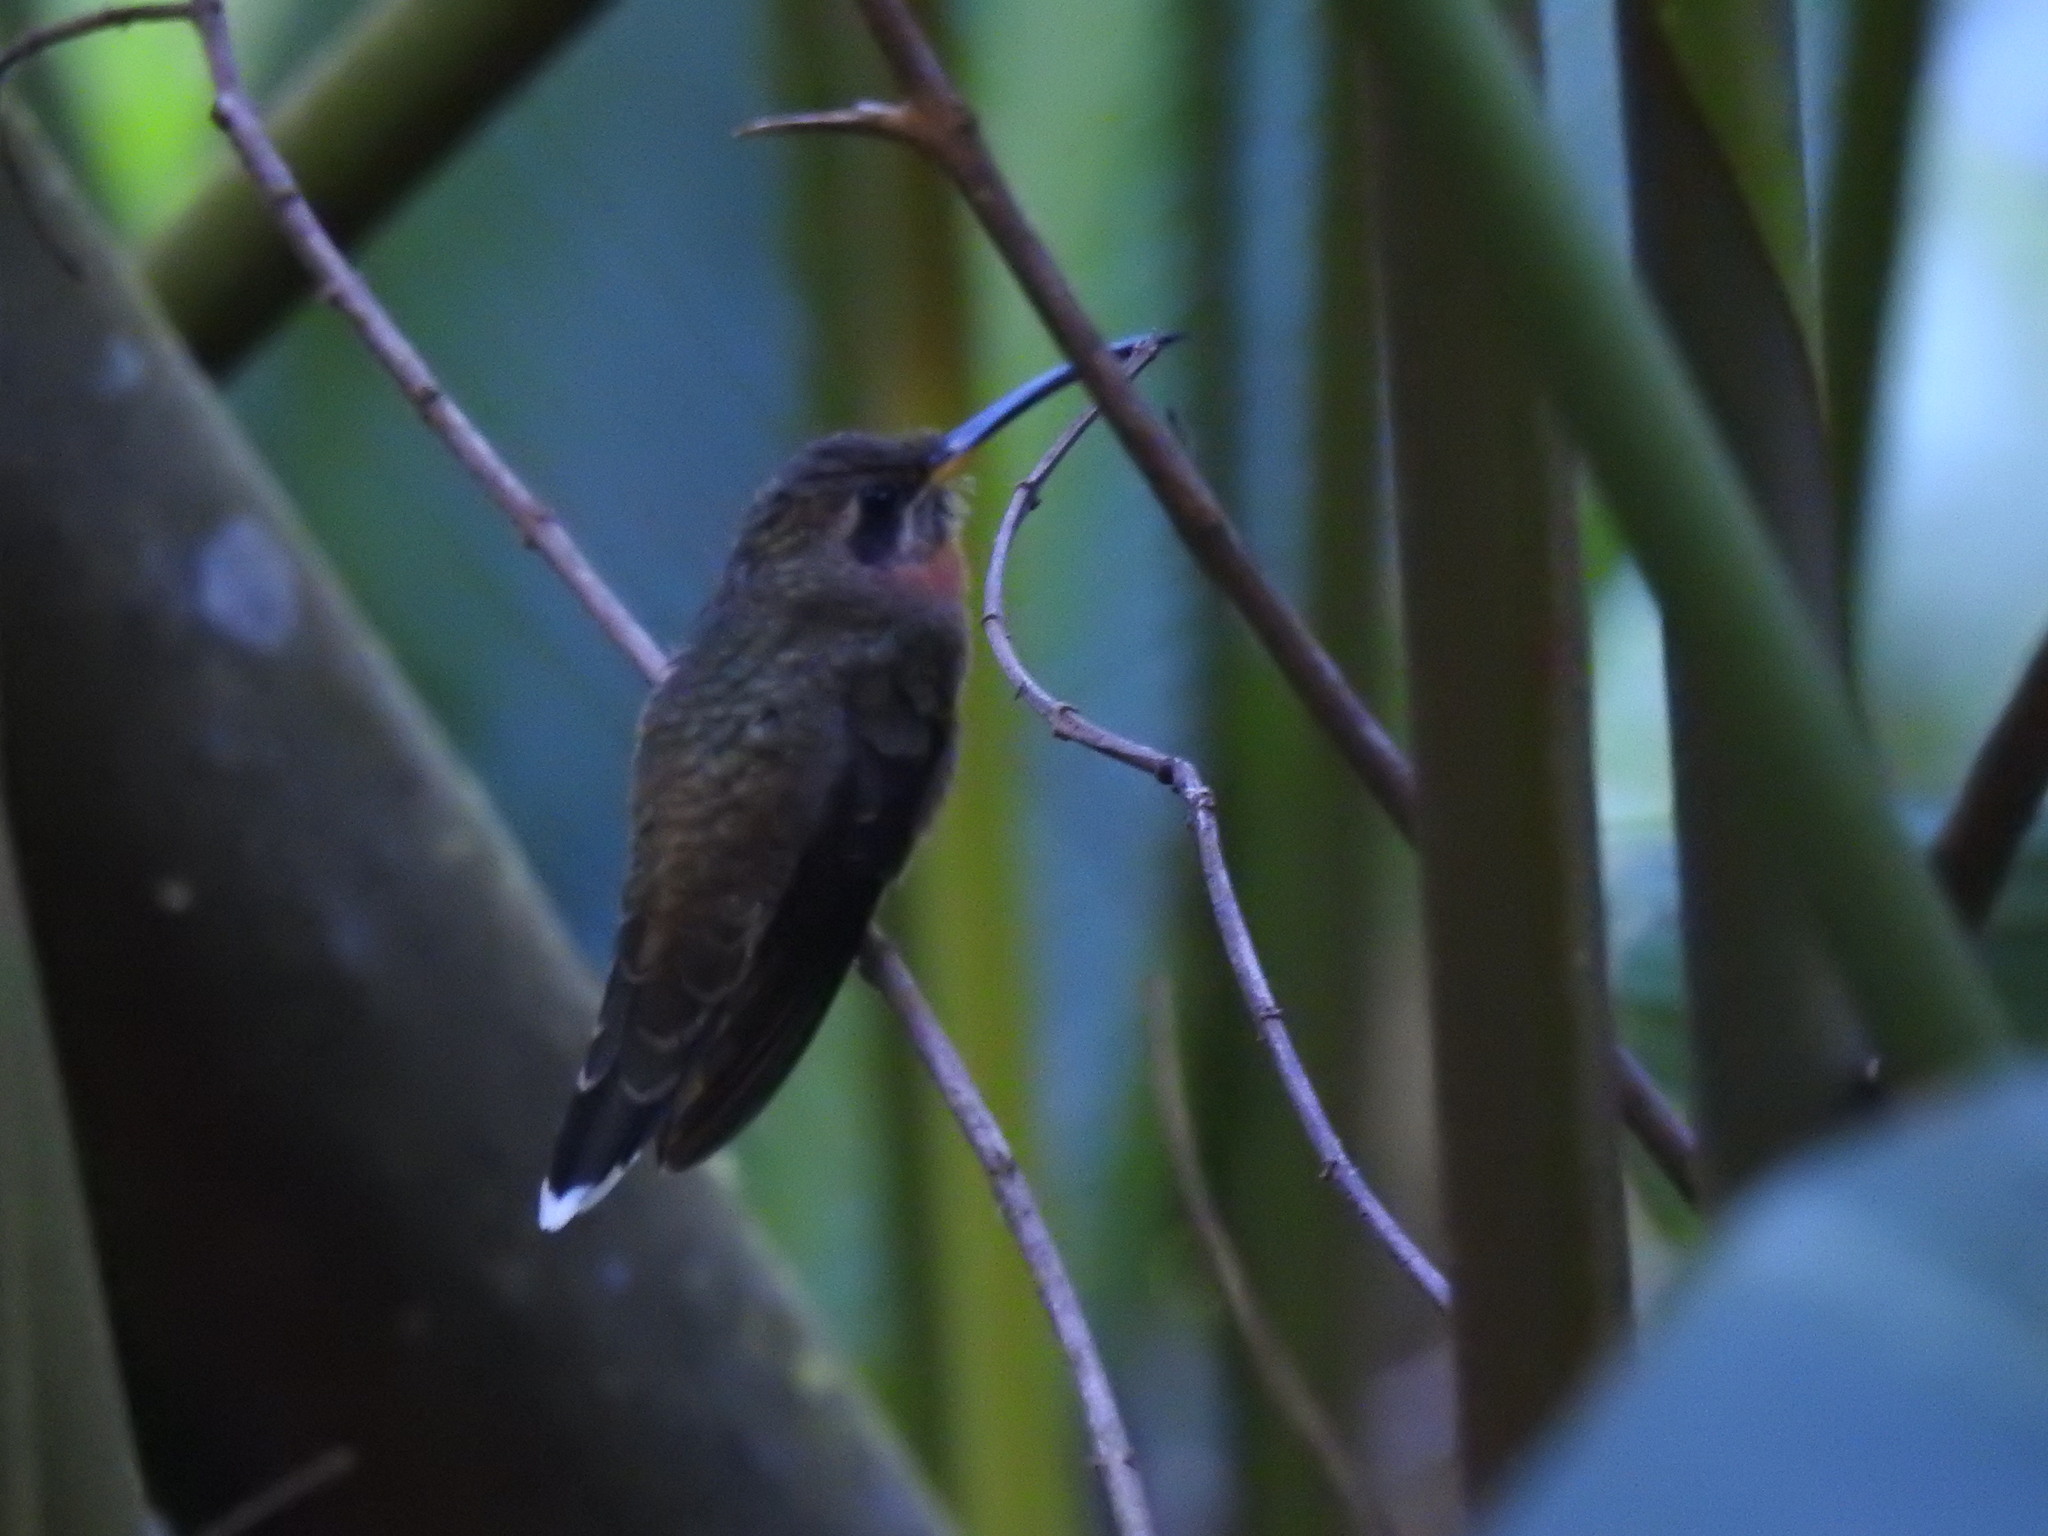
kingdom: Animalia
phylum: Chordata
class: Aves
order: Apodiformes
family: Trochilidae
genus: Threnetes
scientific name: Threnetes ruckeri
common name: Band-tailed barbthroat
